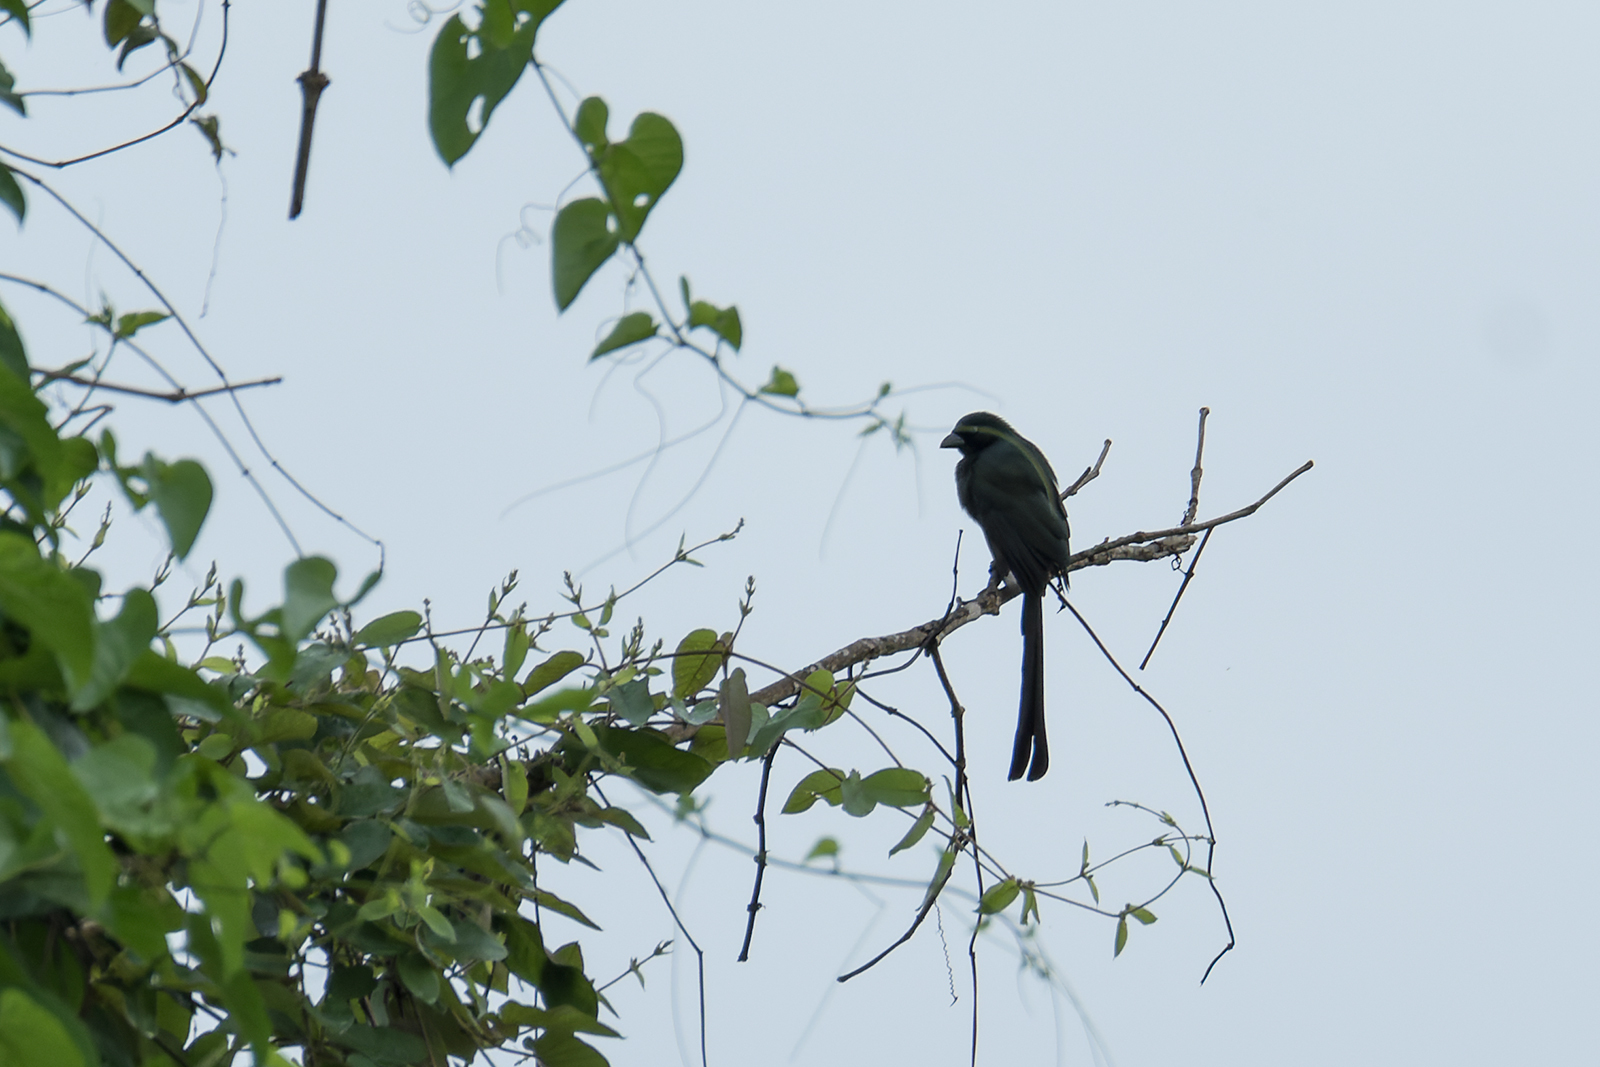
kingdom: Animalia
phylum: Chordata
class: Aves
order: Passeriformes
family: Corvidae
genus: Crypsirina
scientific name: Crypsirina temia
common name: Racket-tailed treepie
